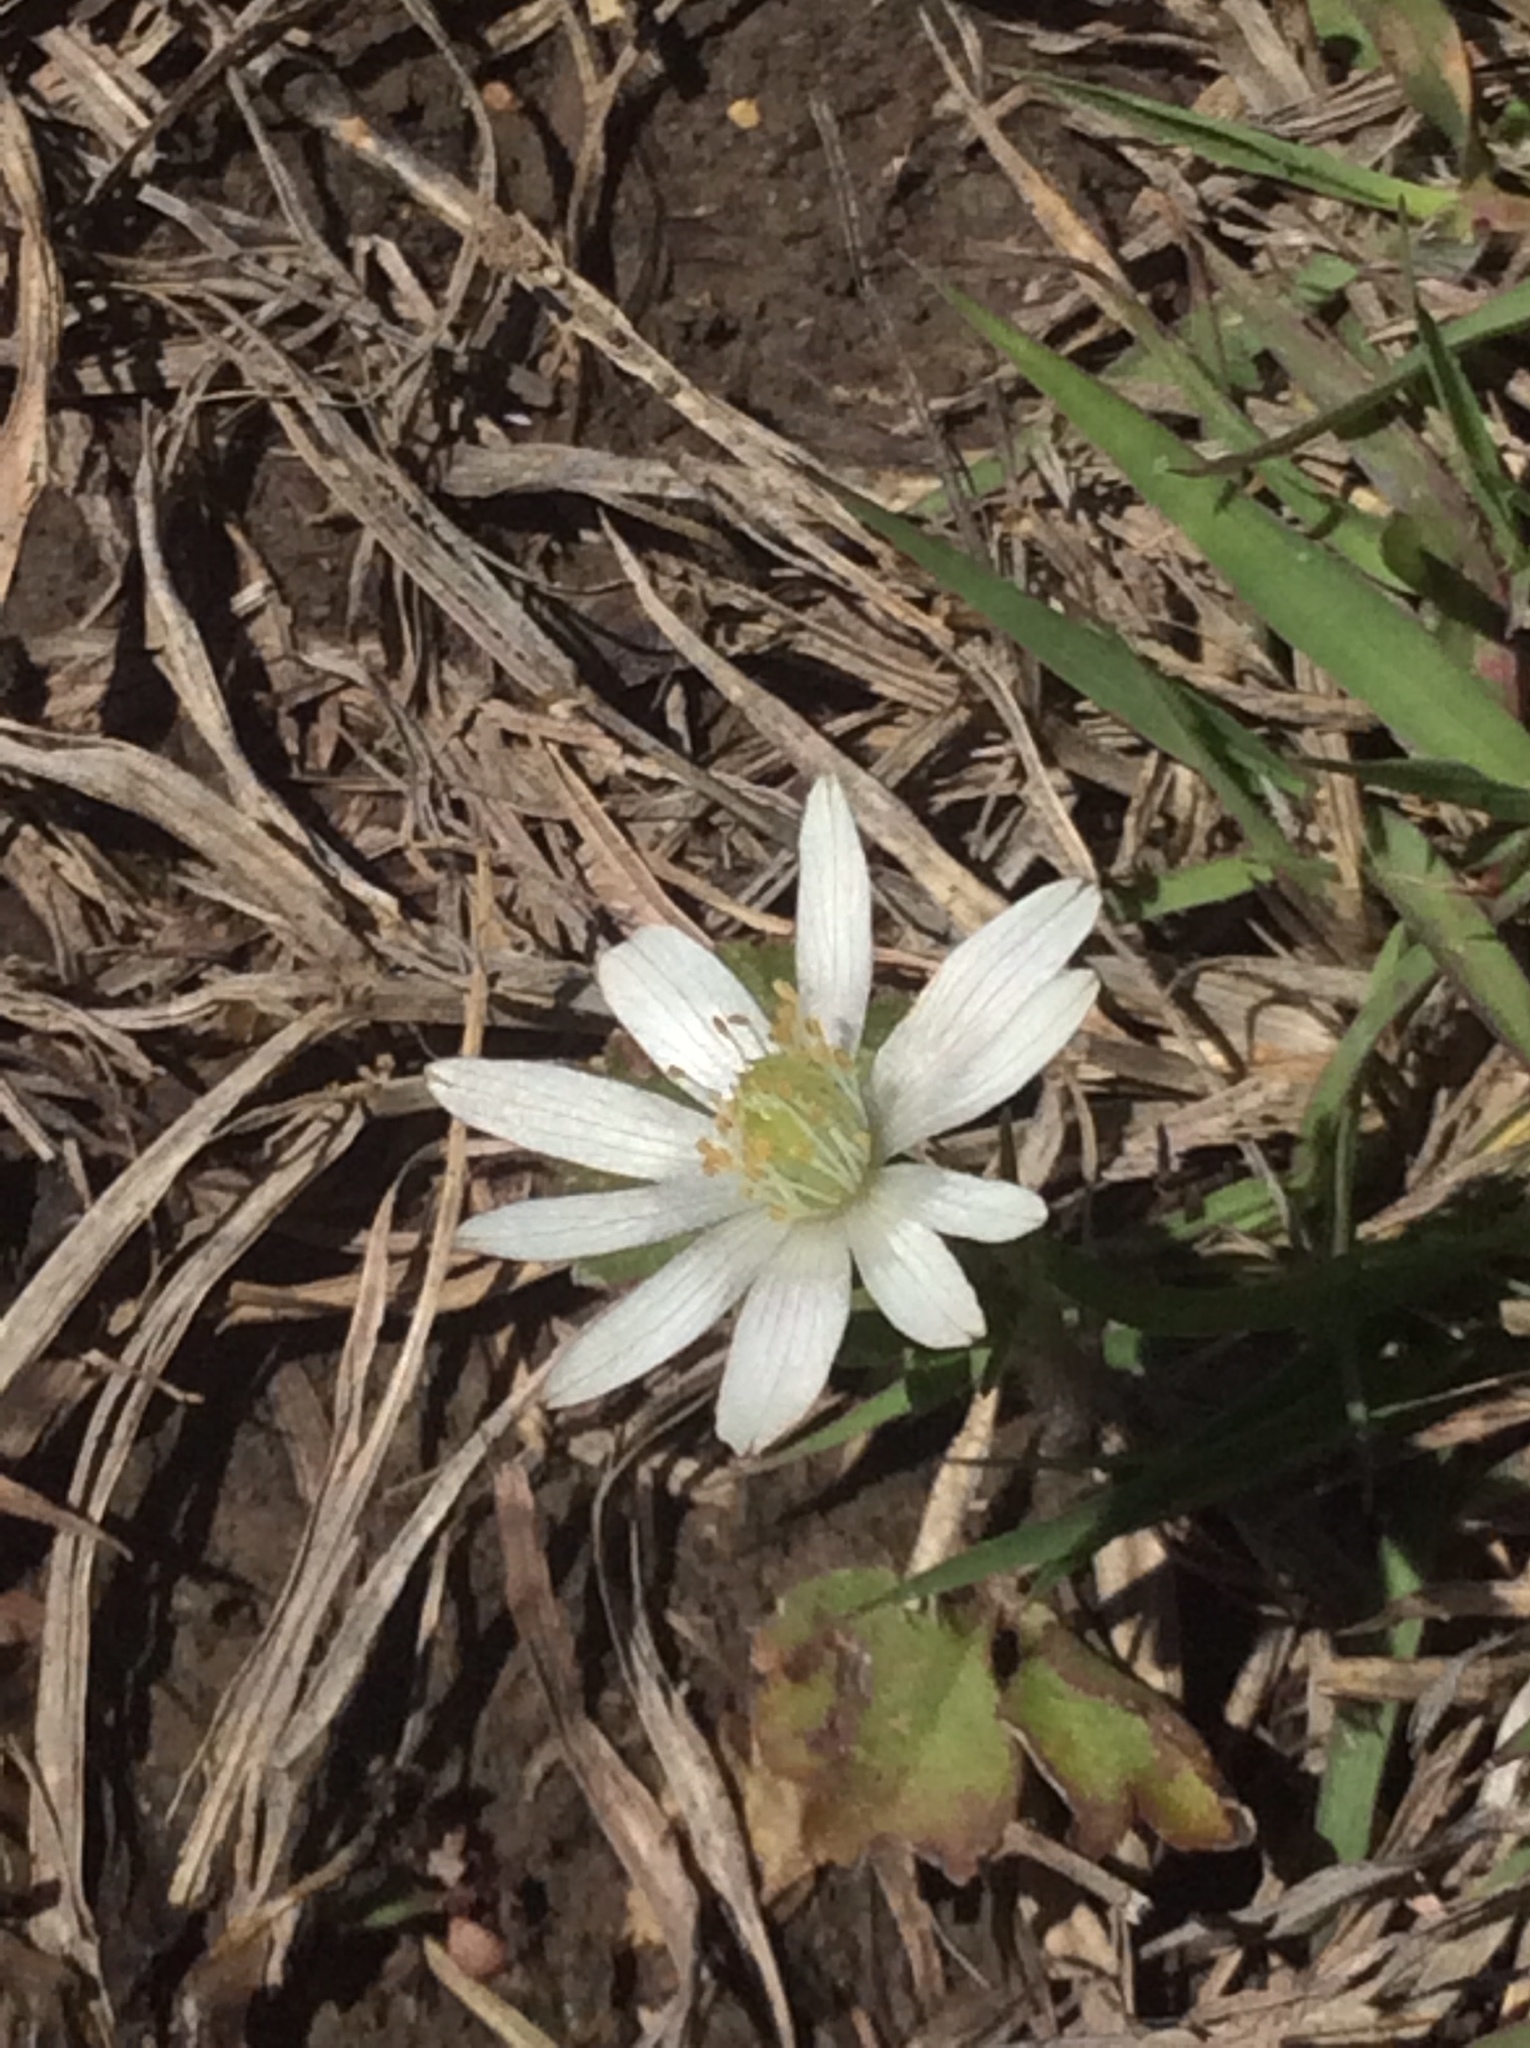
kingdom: Plantae
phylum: Tracheophyta
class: Magnoliopsida
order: Ranunculales
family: Ranunculaceae
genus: Anemone
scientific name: Anemone berlandieri
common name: Ten-petal anemone
